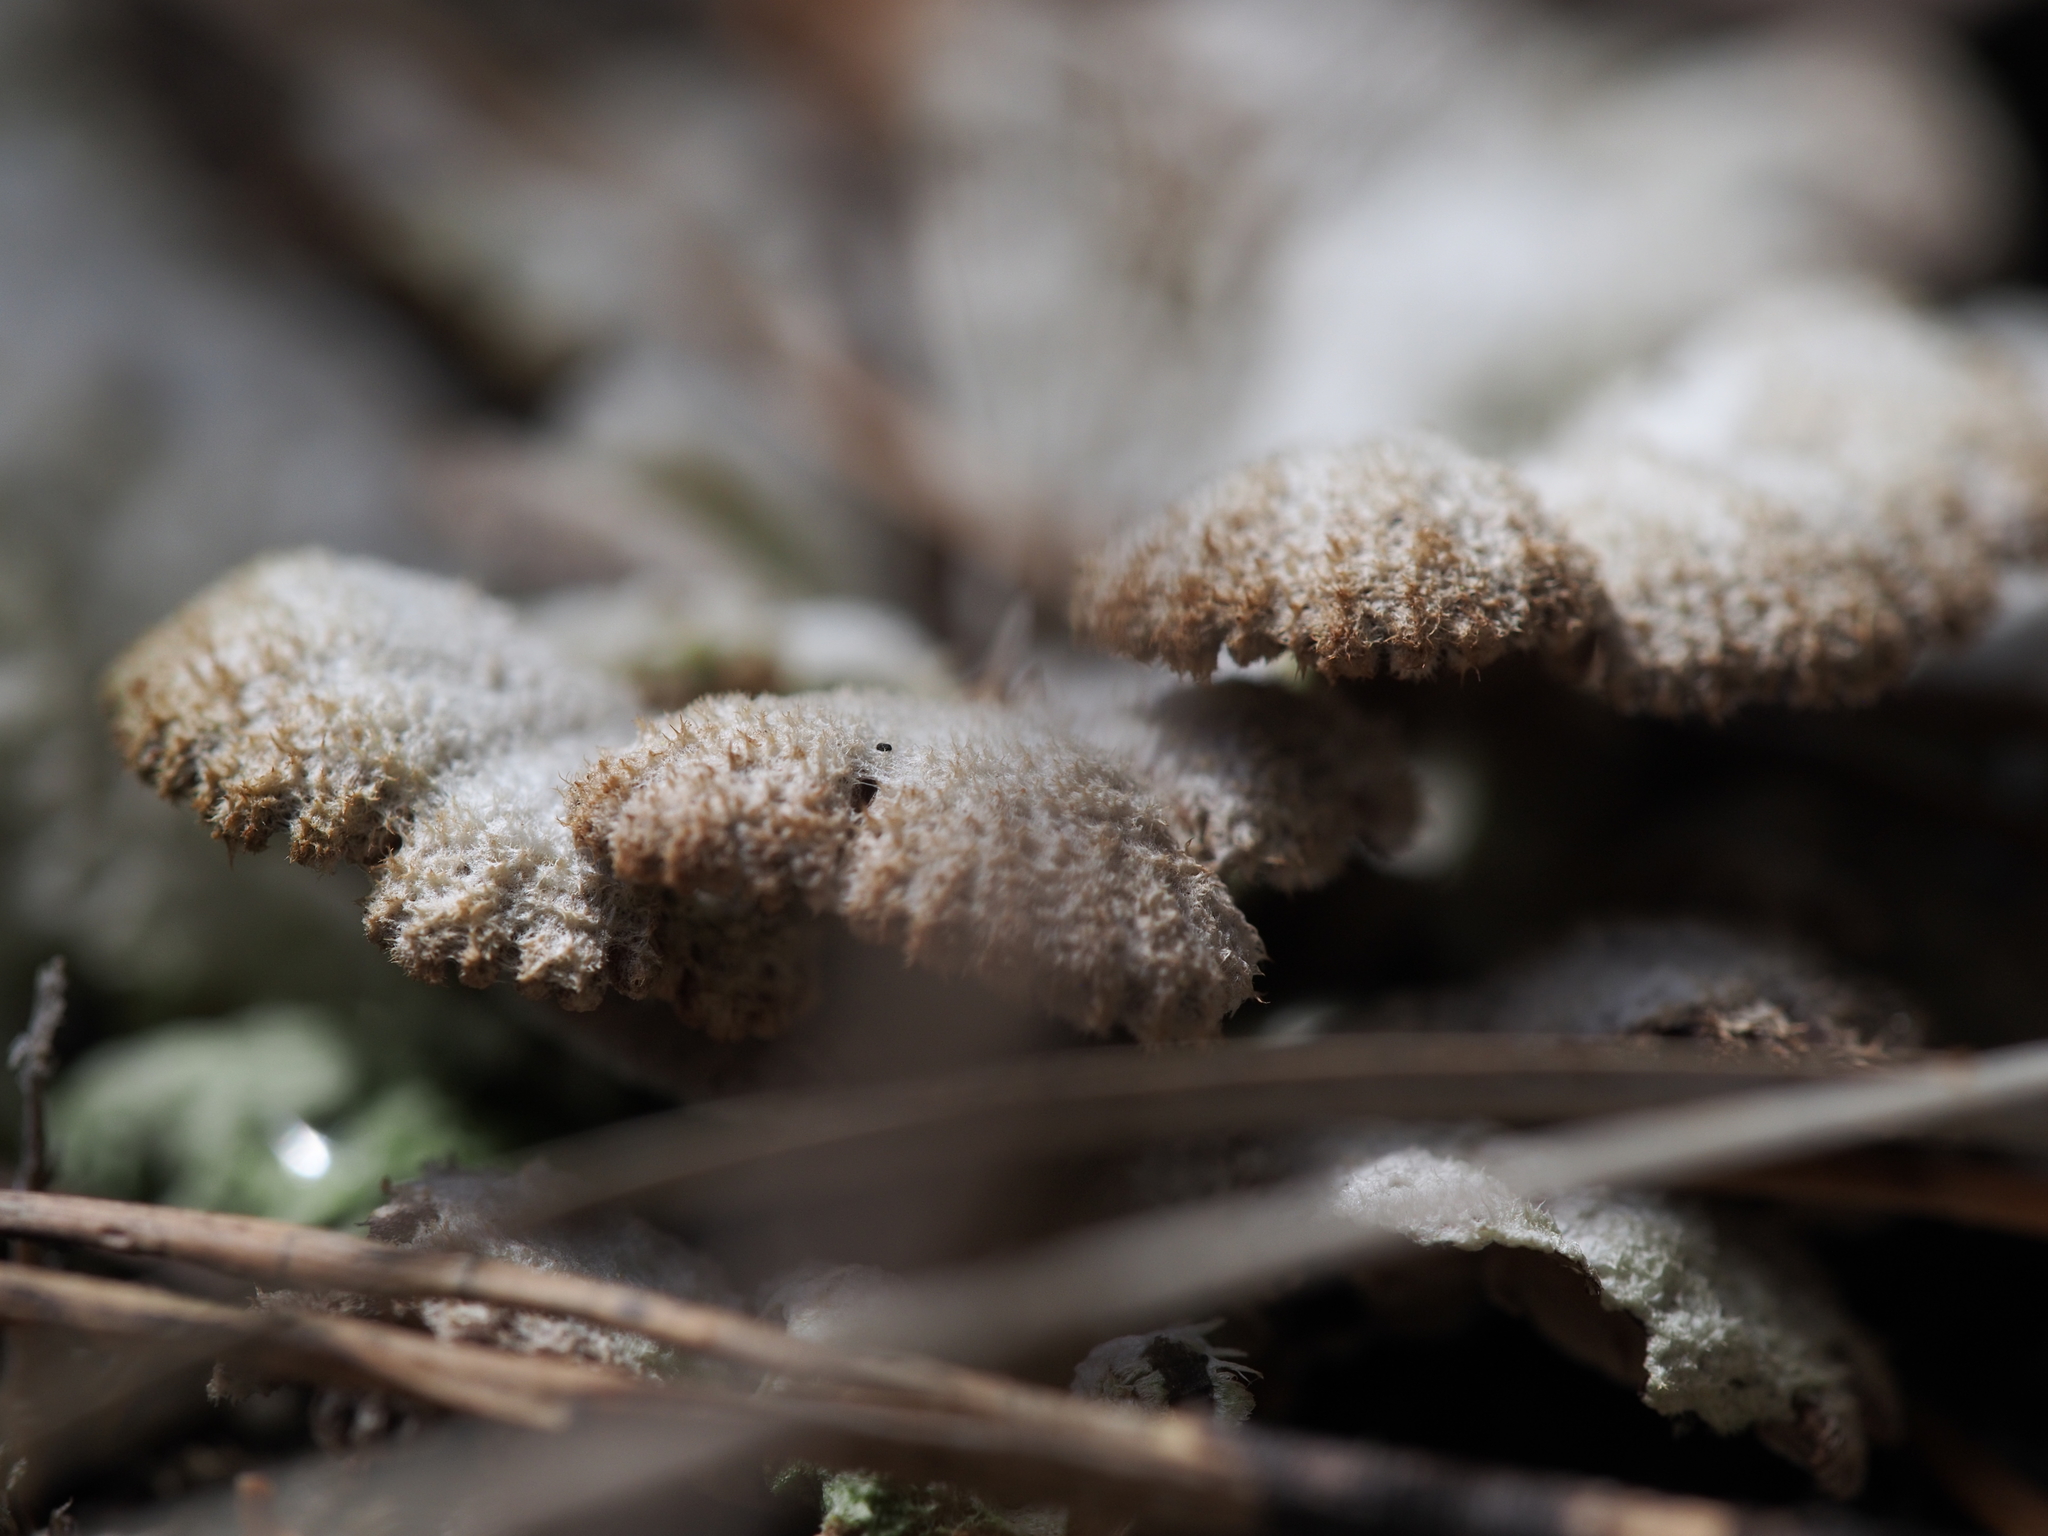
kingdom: Fungi
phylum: Basidiomycota
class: Agaricomycetes
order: Agaricales
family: Schizophyllaceae
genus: Schizophyllum
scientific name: Schizophyllum commune
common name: Common porecrust
